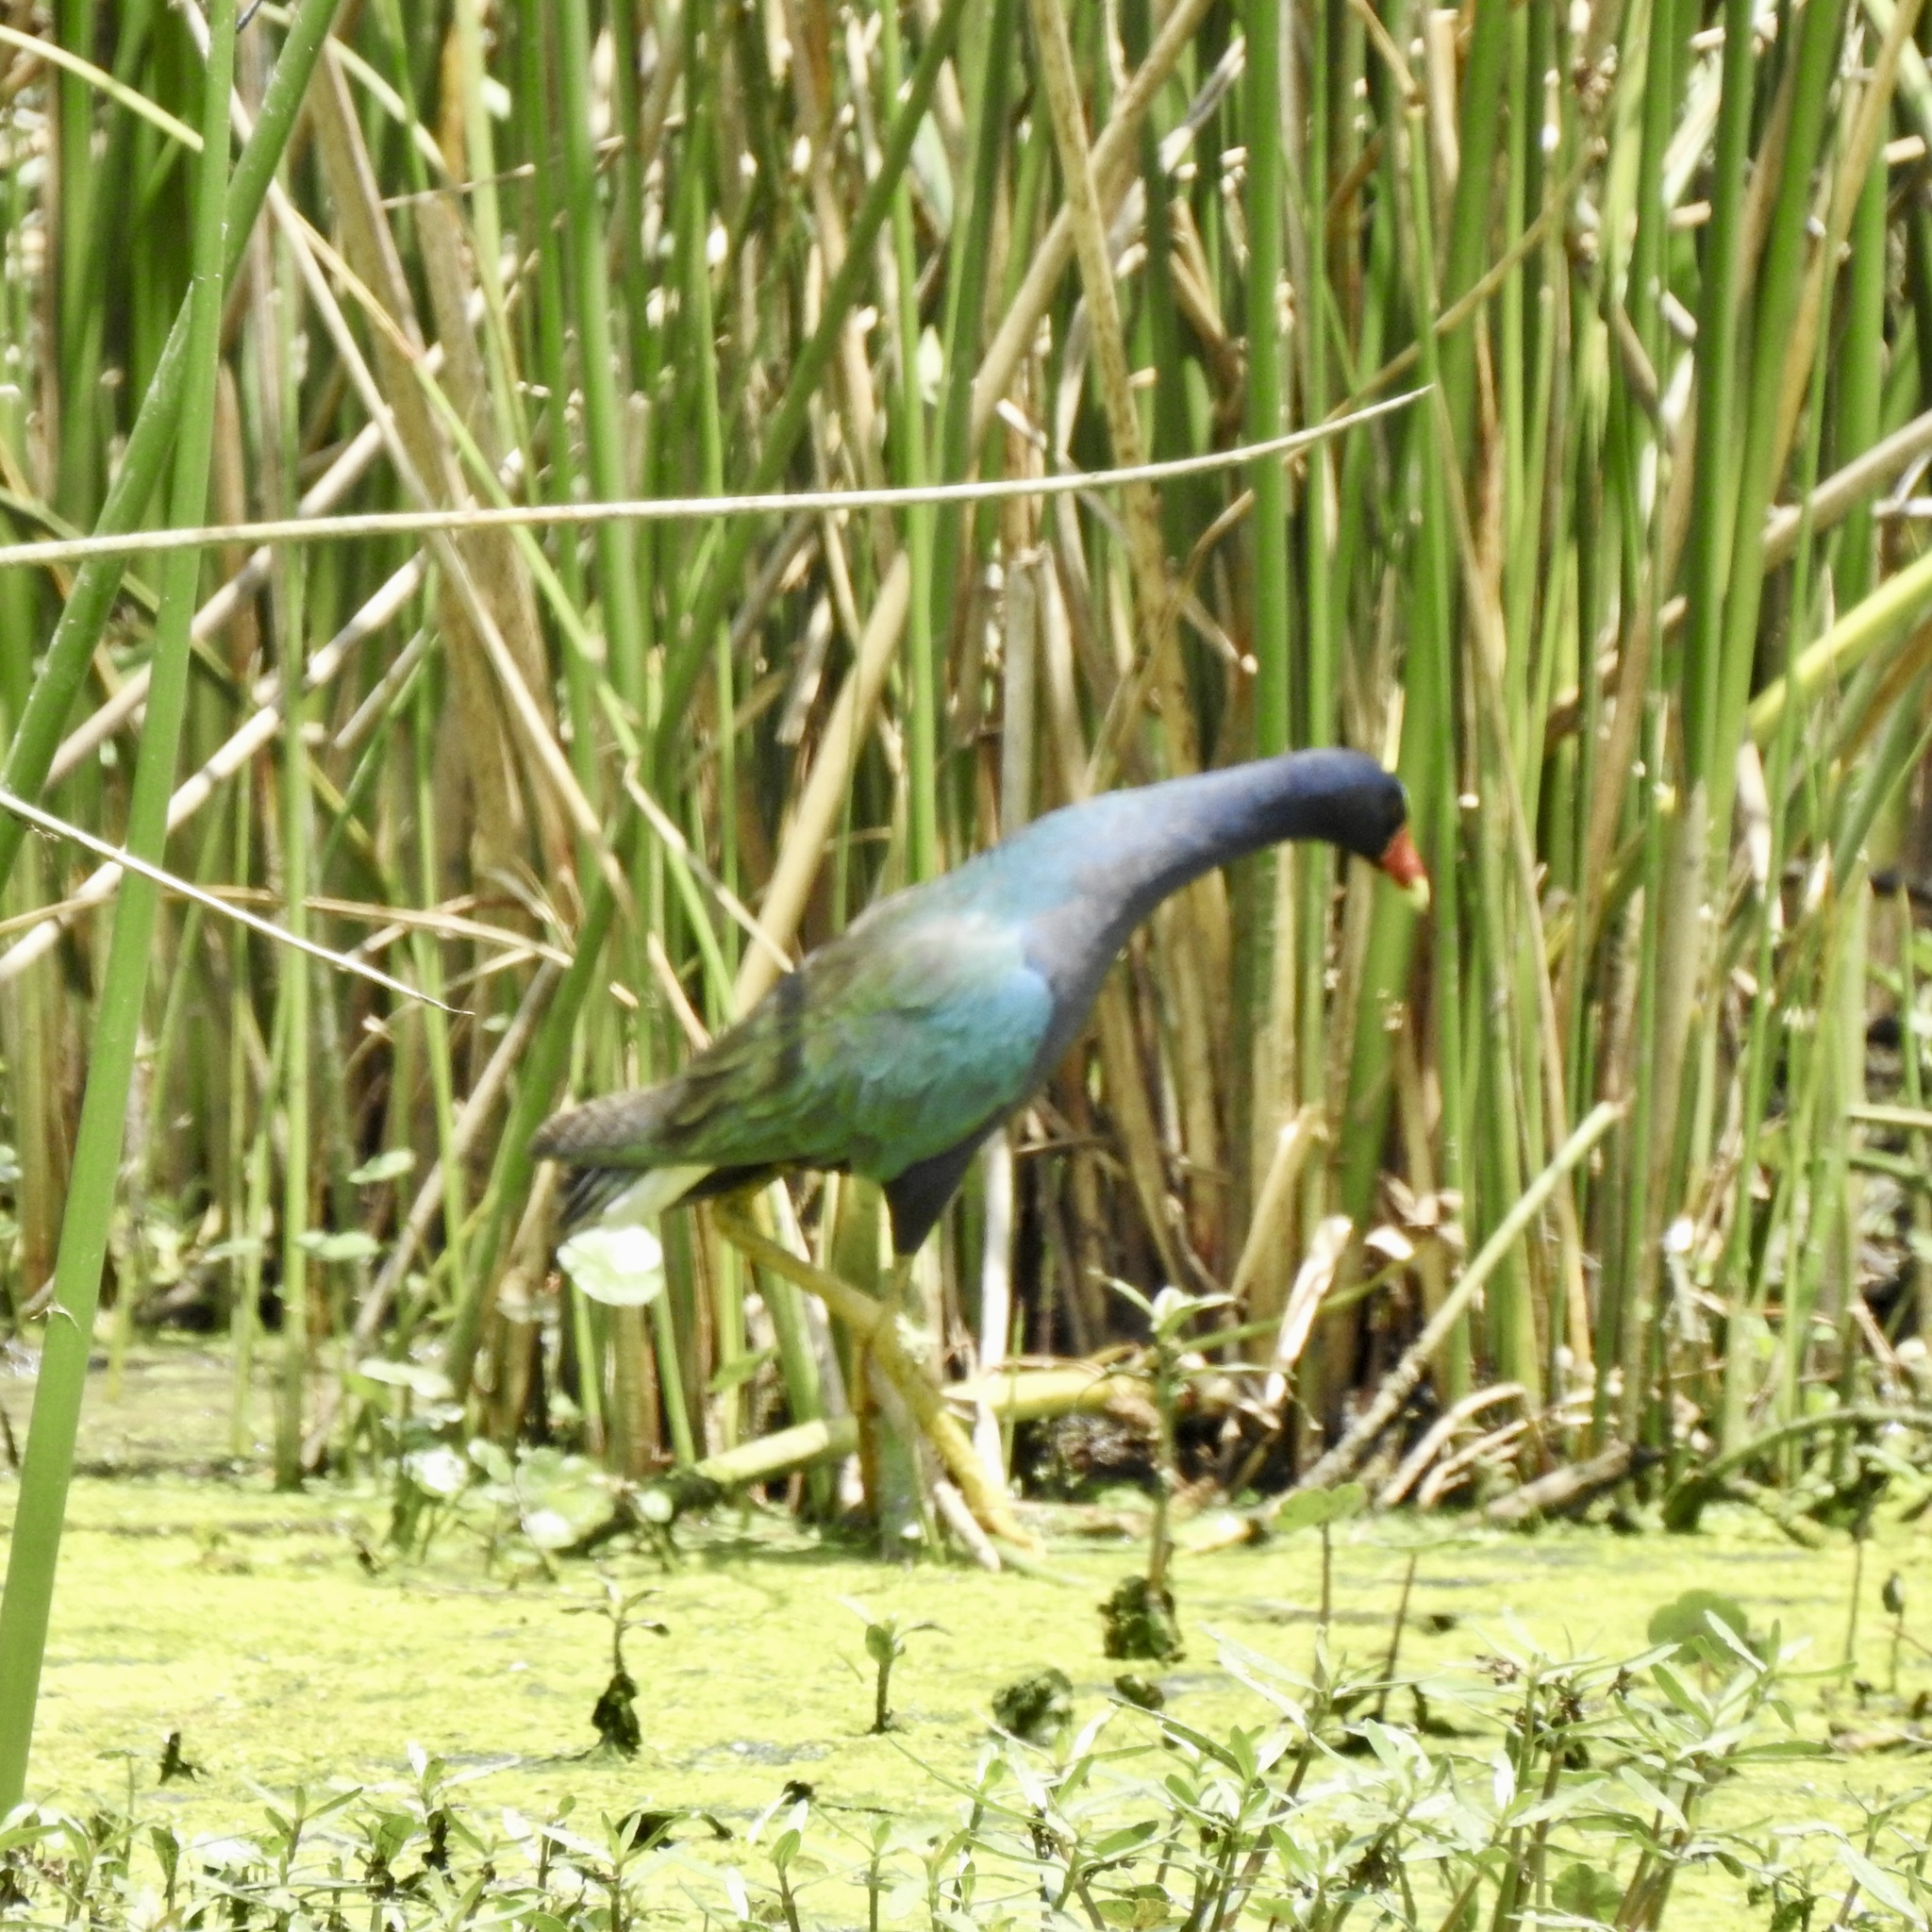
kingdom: Animalia
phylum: Chordata
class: Aves
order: Gruiformes
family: Rallidae
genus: Porphyrio
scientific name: Porphyrio martinica
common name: Purple gallinule
